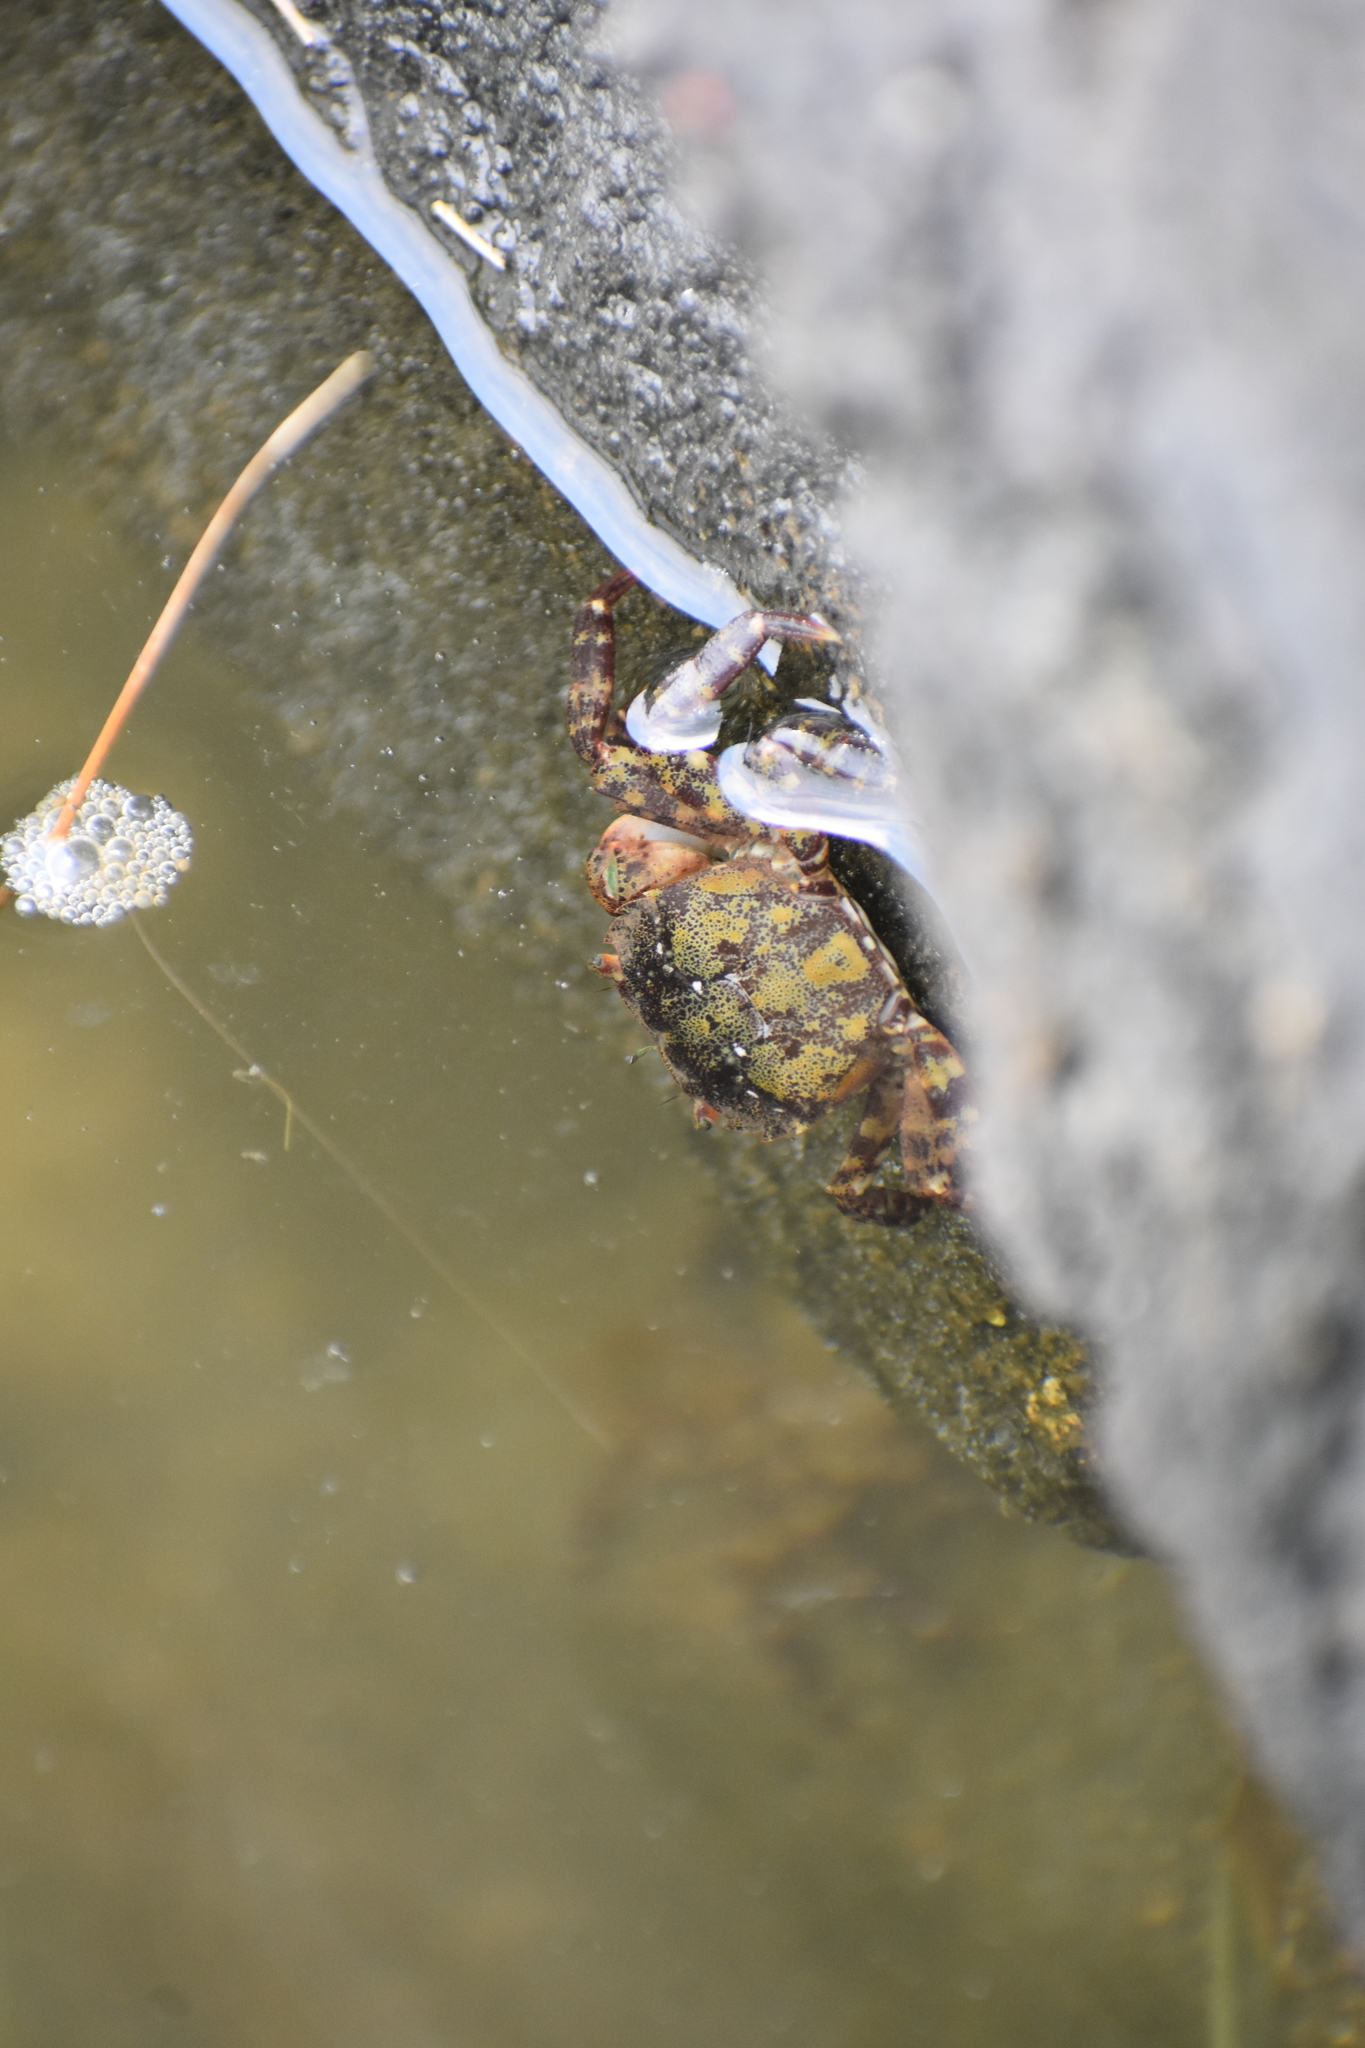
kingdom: Animalia
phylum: Arthropoda
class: Malacostraca
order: Decapoda
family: Varunidae
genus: Hemigrapsus
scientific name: Hemigrapsus sanguineus
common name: Asian shore crab
